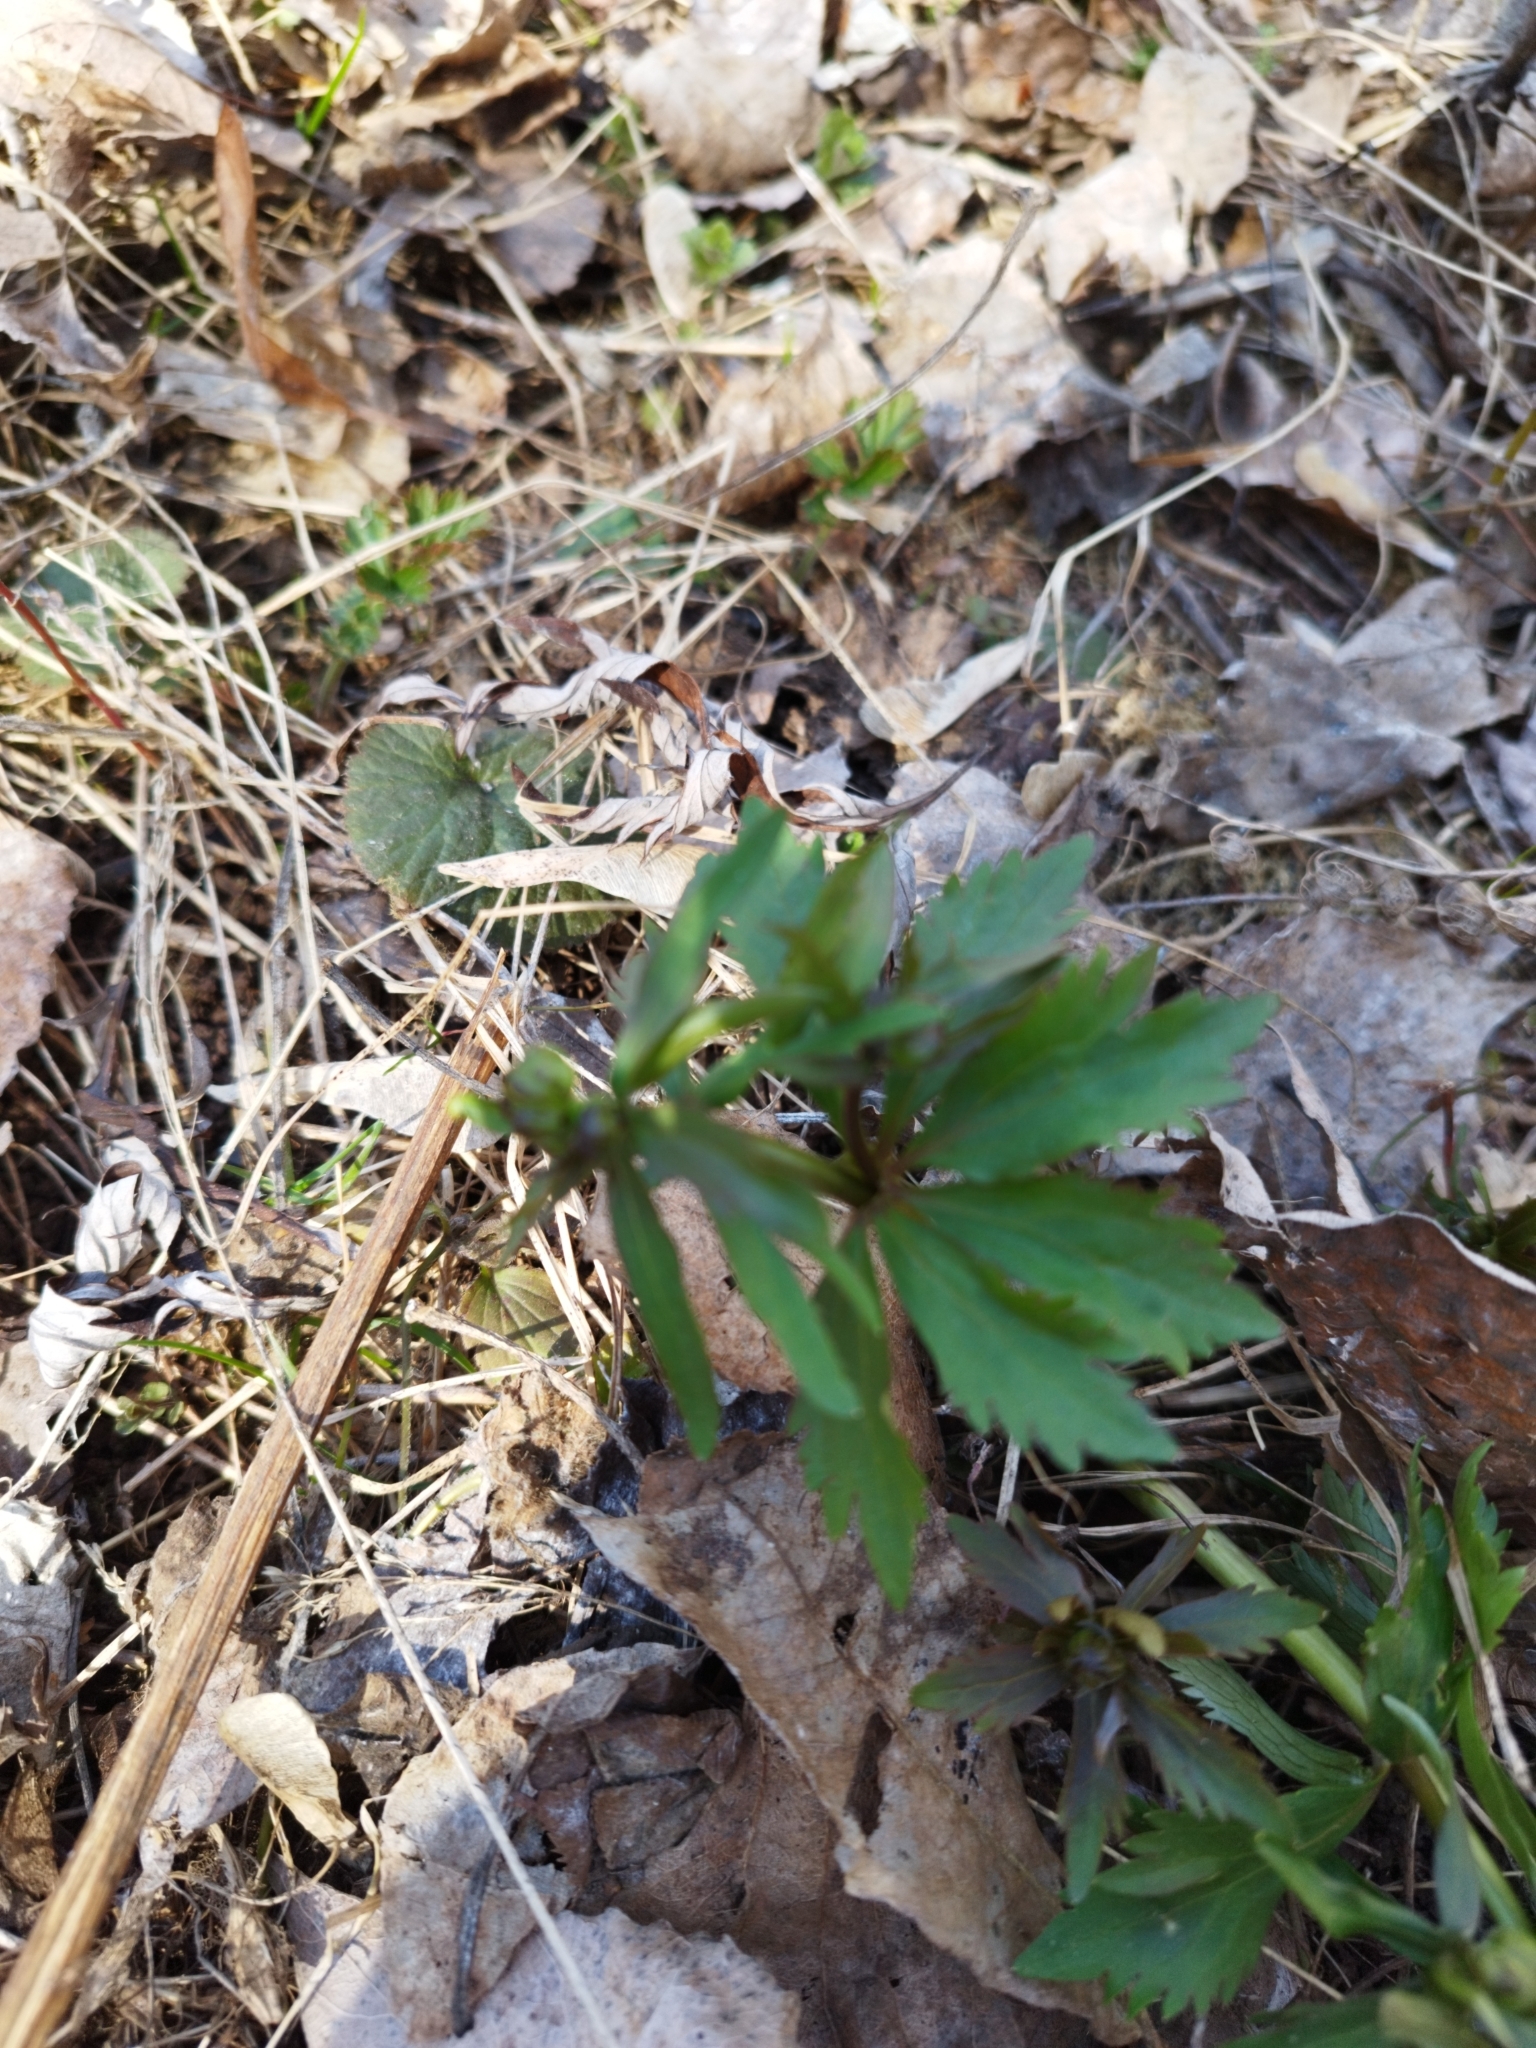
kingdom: Plantae
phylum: Tracheophyta
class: Magnoliopsida
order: Ranunculales
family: Ranunculaceae
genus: Ranunculus
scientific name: Ranunculus cassubicus
